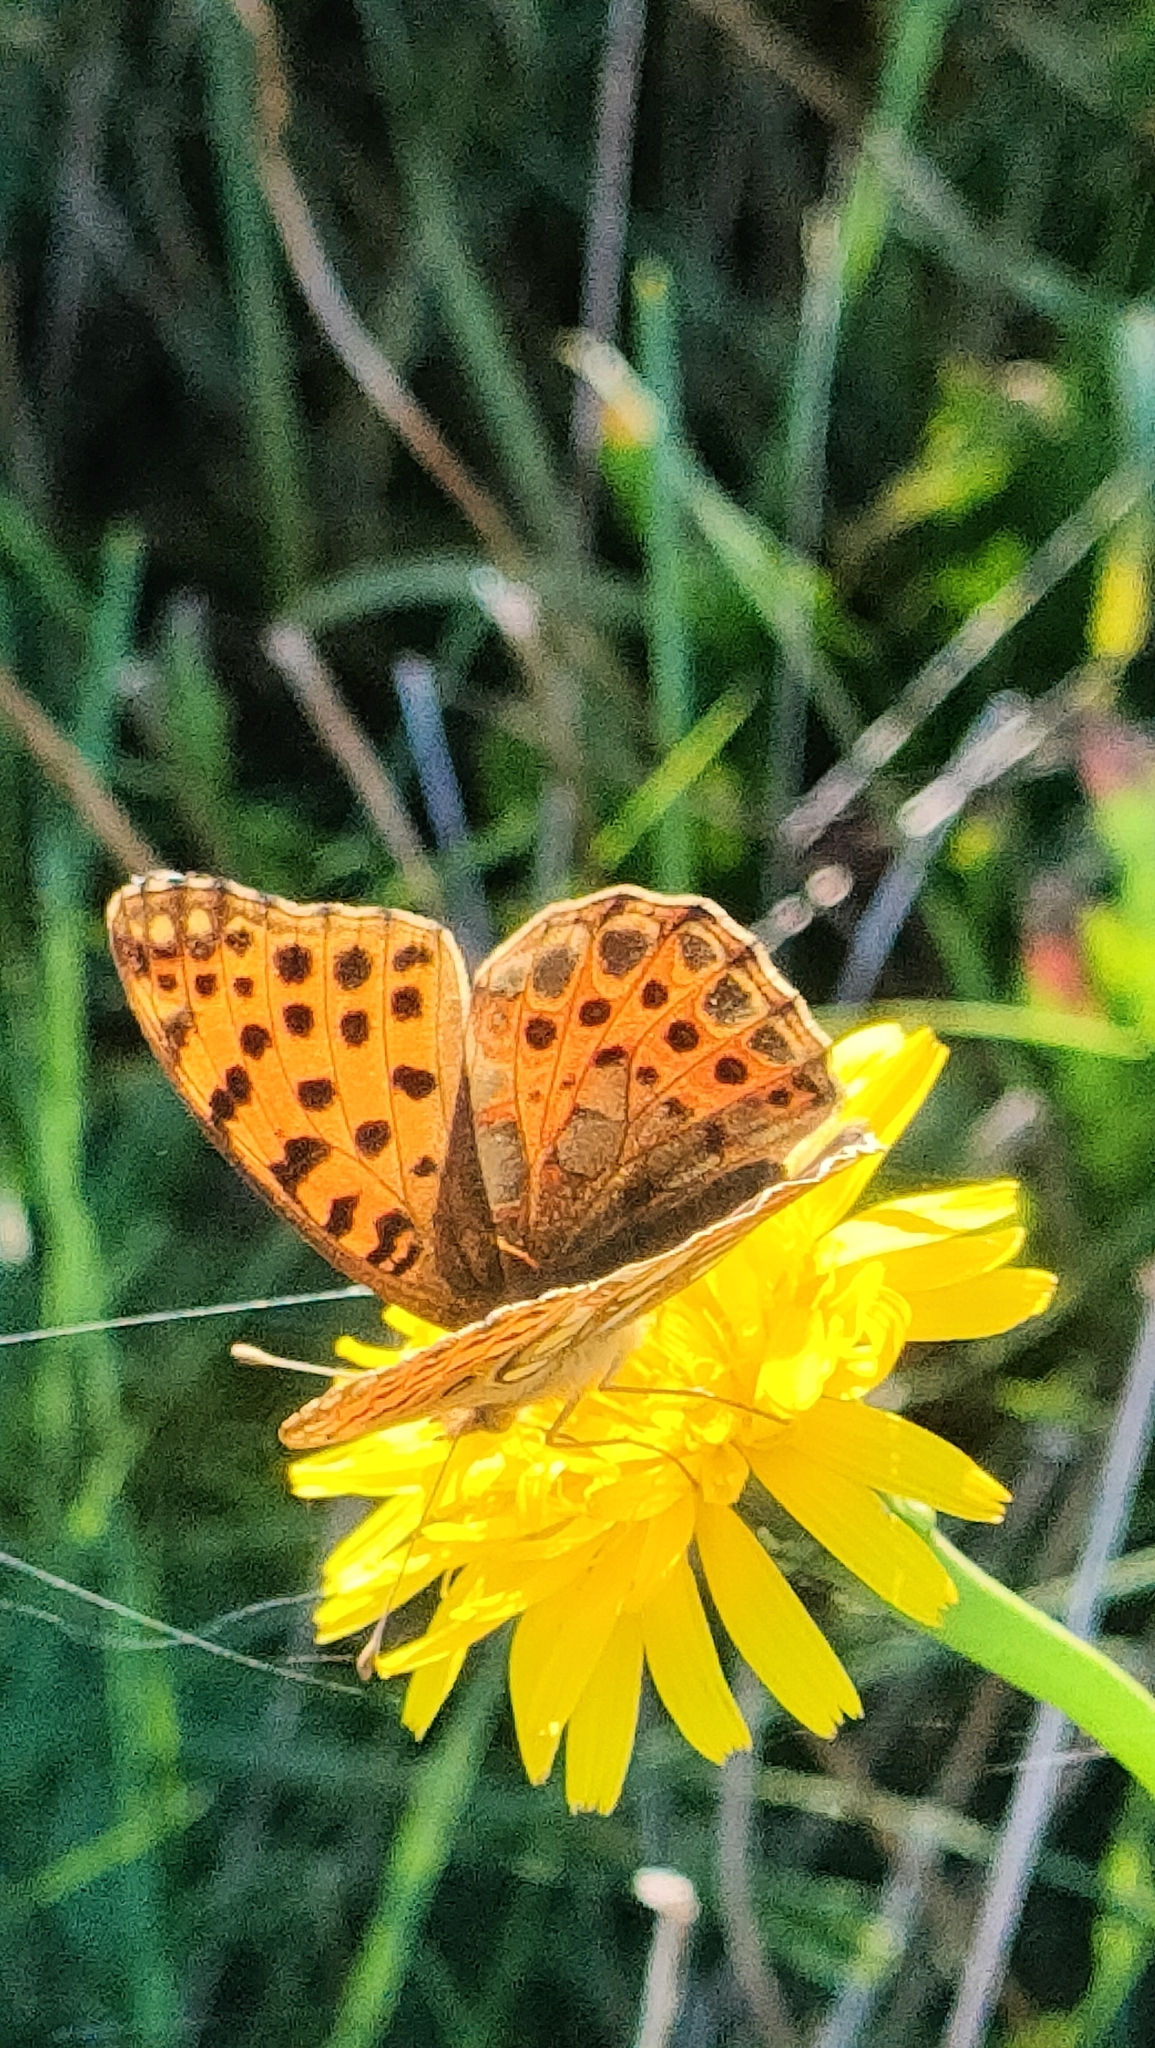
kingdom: Animalia
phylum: Arthropoda
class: Insecta
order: Lepidoptera
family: Nymphalidae
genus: Issoria
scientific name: Issoria lathonia
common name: Queen of spain fritillary
